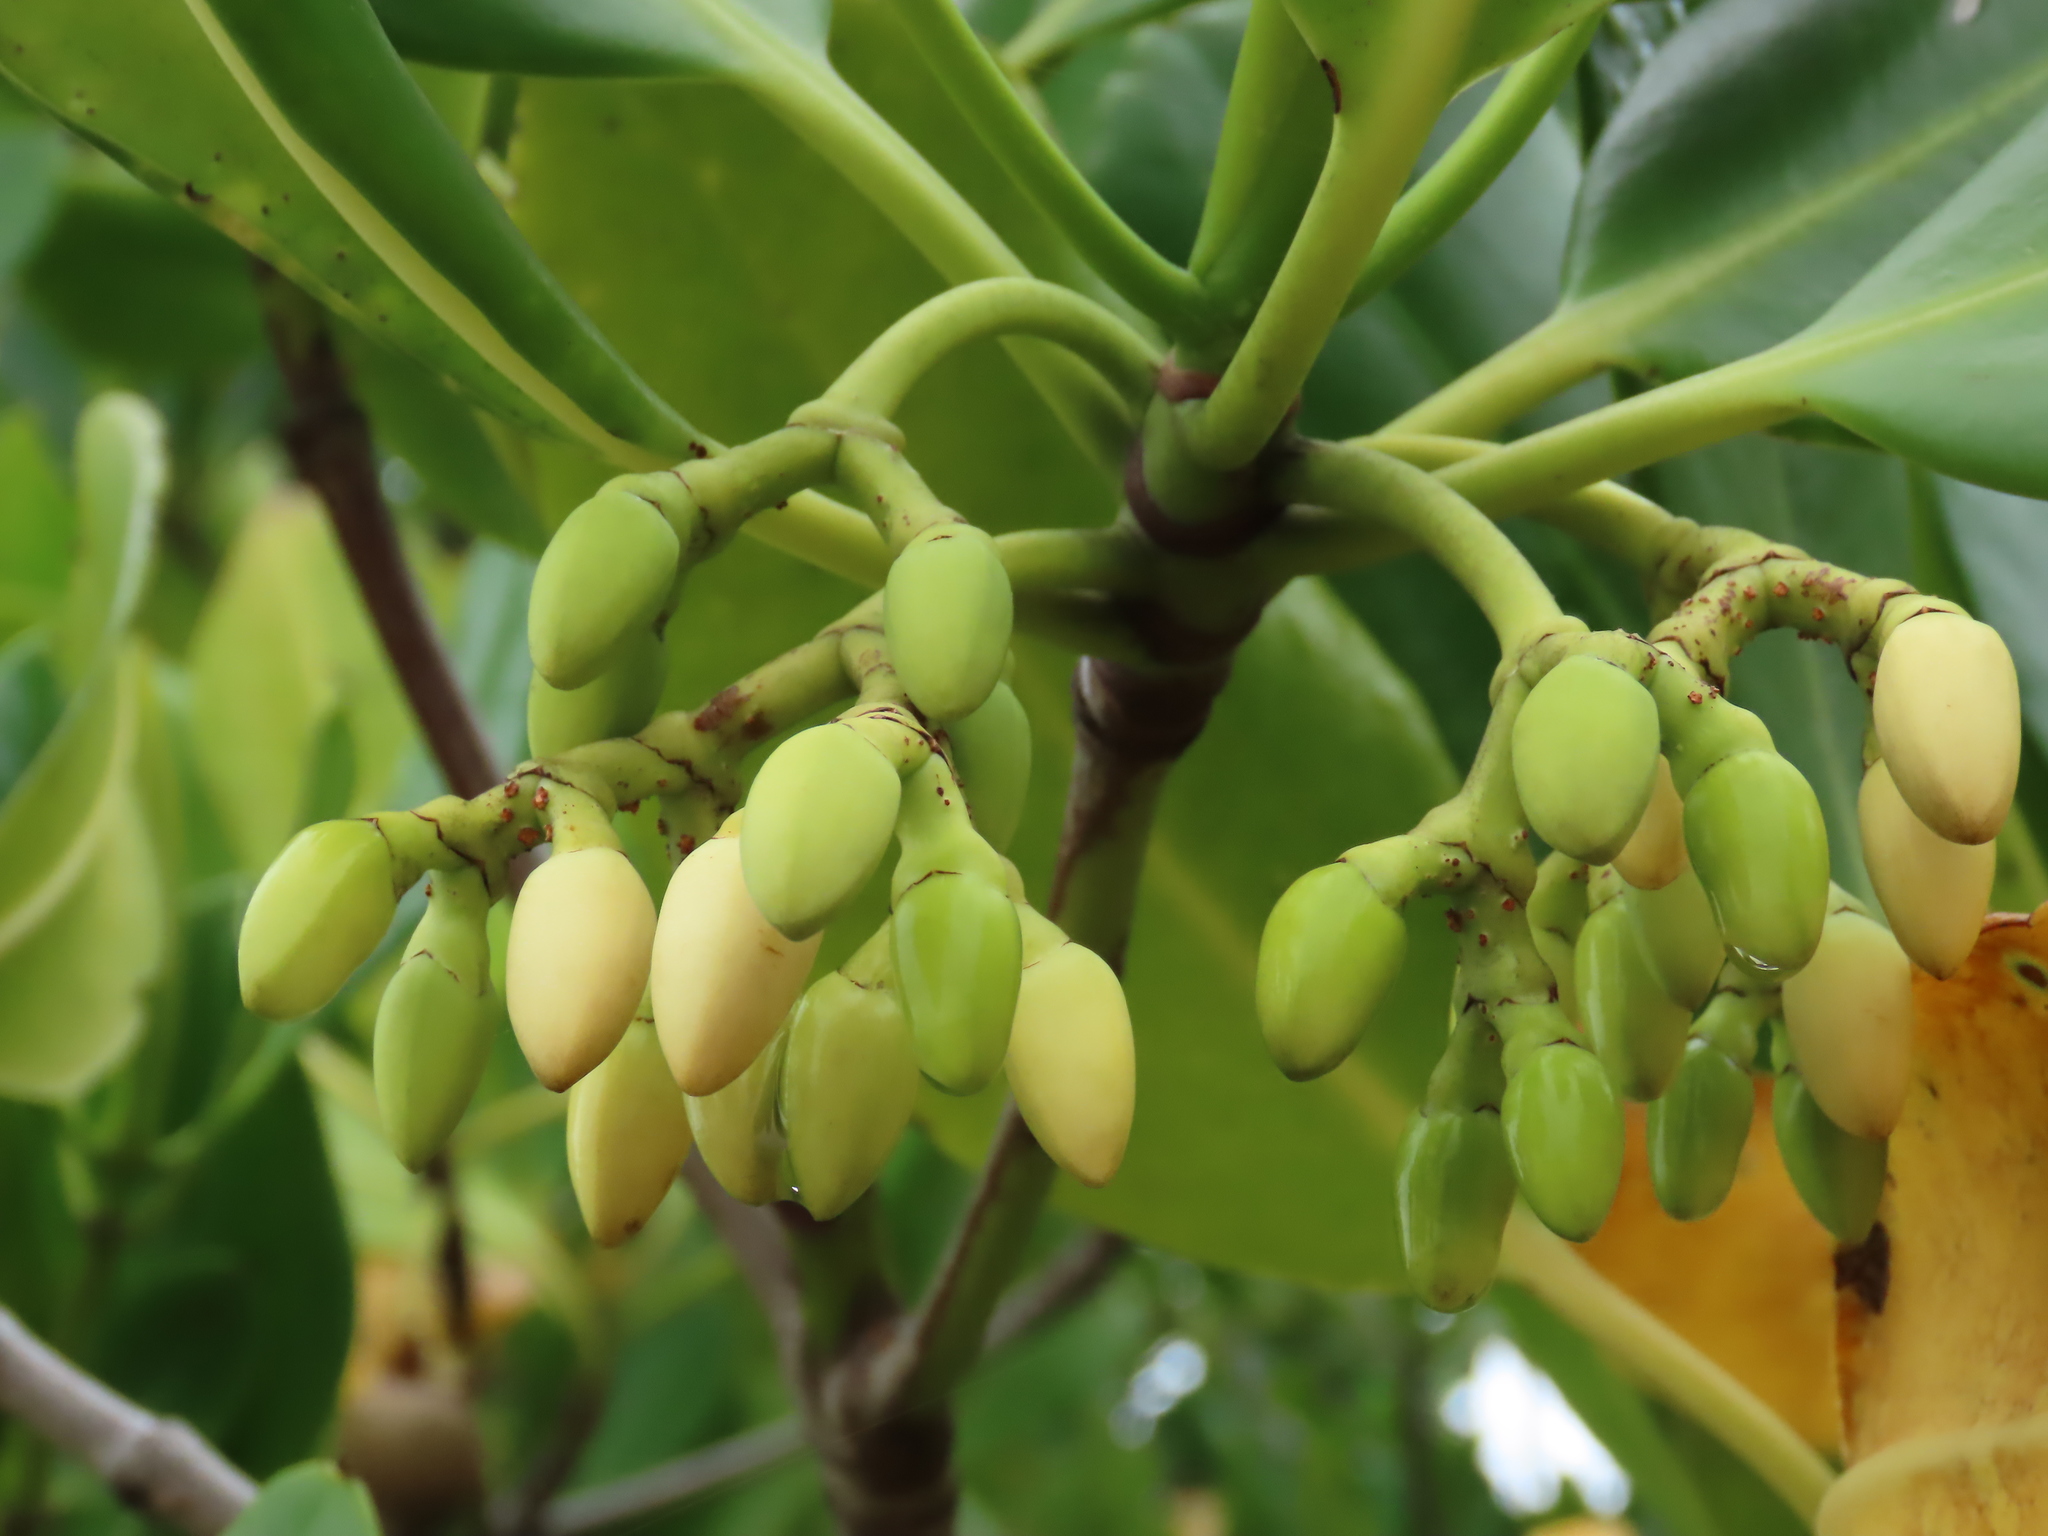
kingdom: Plantae
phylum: Tracheophyta
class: Magnoliopsida
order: Malpighiales
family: Rhizophoraceae
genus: Rhizophora
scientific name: Rhizophora stylosa
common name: Red mangrove
